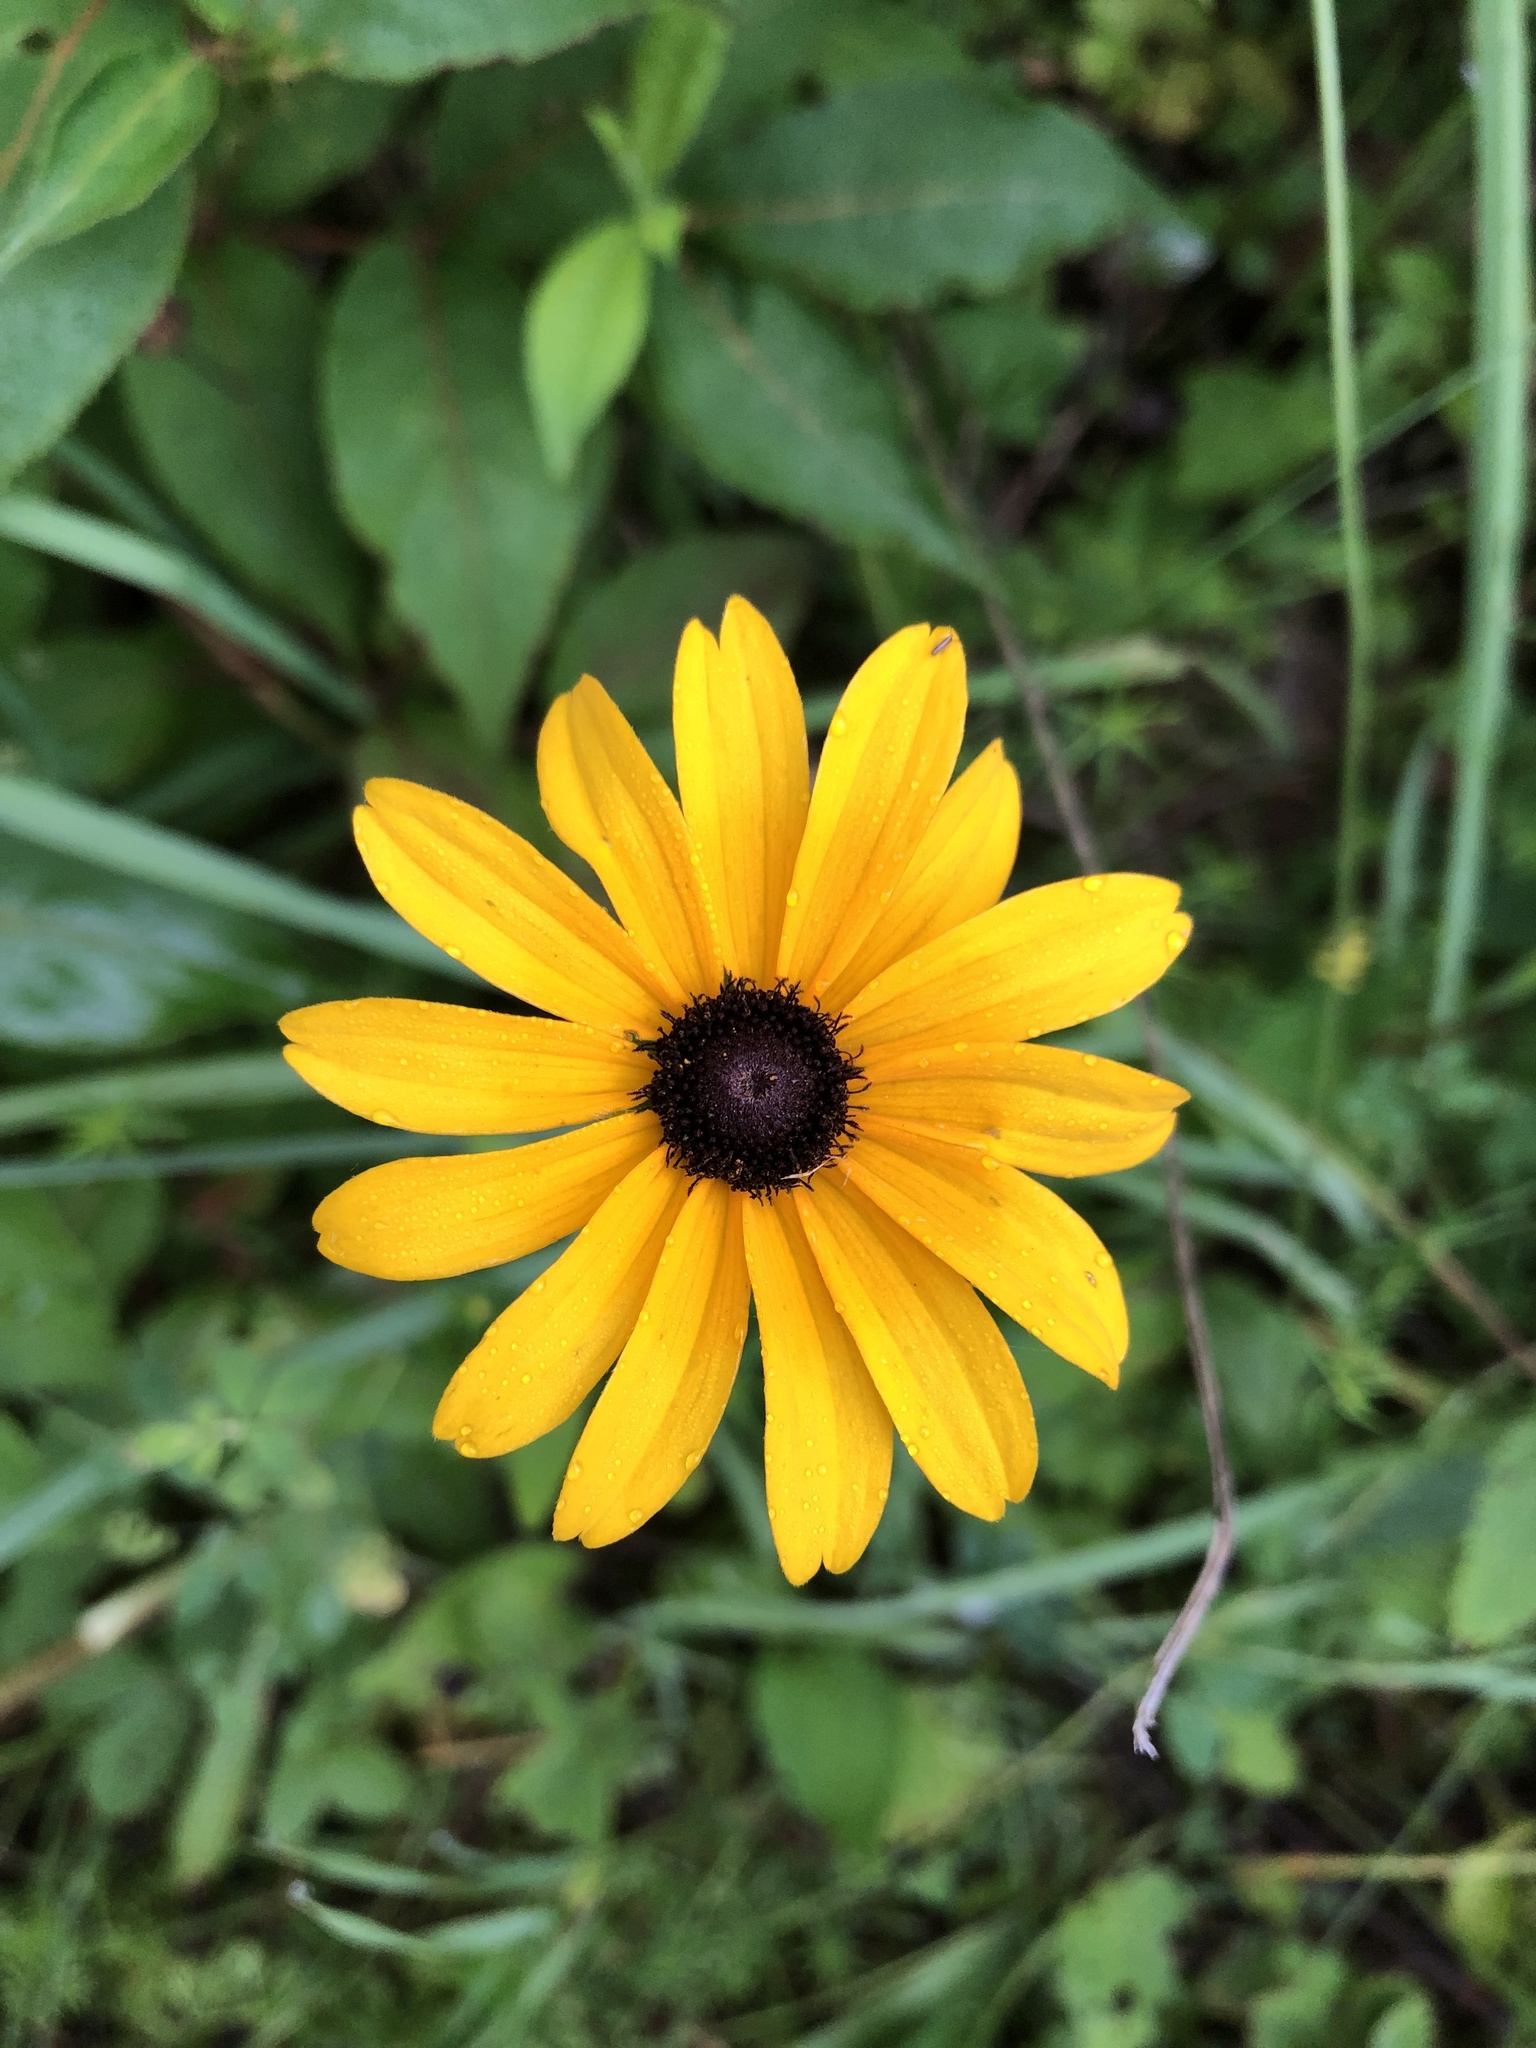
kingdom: Plantae
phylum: Tracheophyta
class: Magnoliopsida
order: Asterales
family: Asteraceae
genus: Rudbeckia
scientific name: Rudbeckia hirta
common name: Black-eyed-susan
